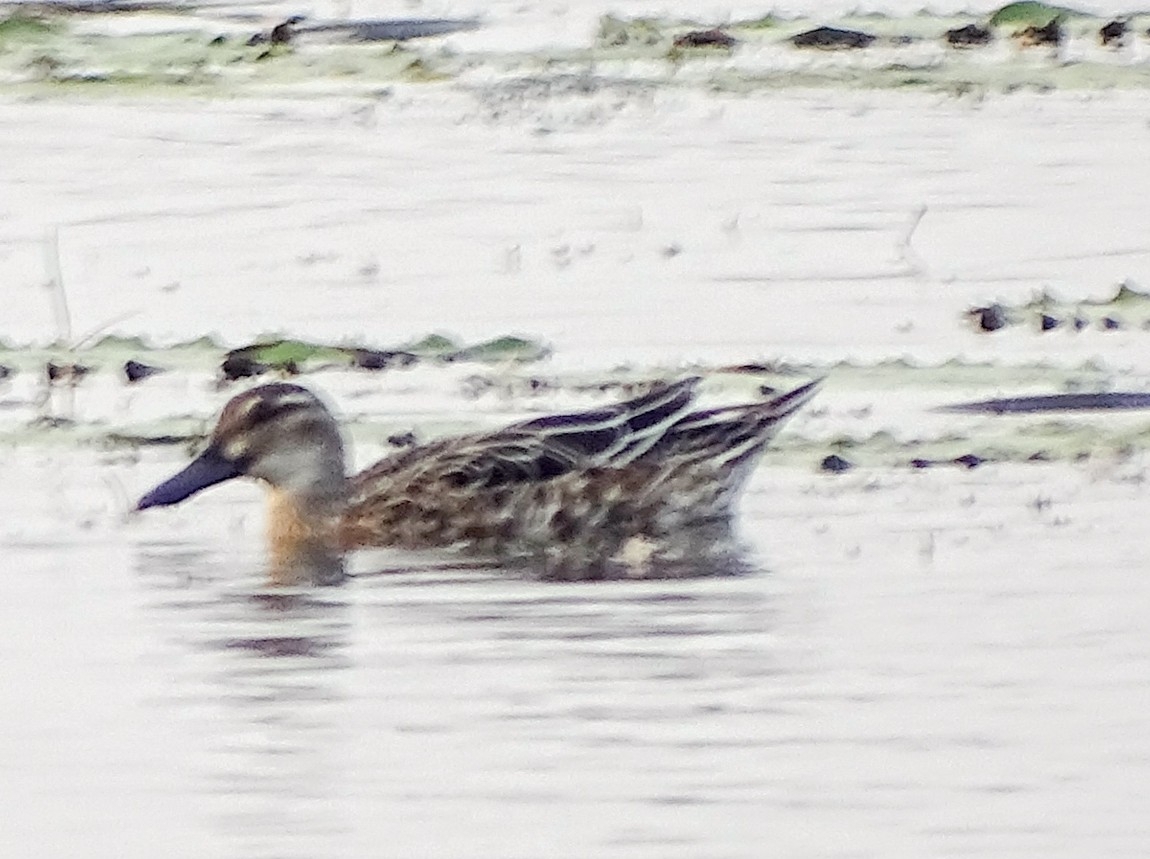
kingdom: Animalia
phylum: Chordata
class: Aves
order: Anseriformes
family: Anatidae
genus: Spatula
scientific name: Spatula querquedula
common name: Garganey
